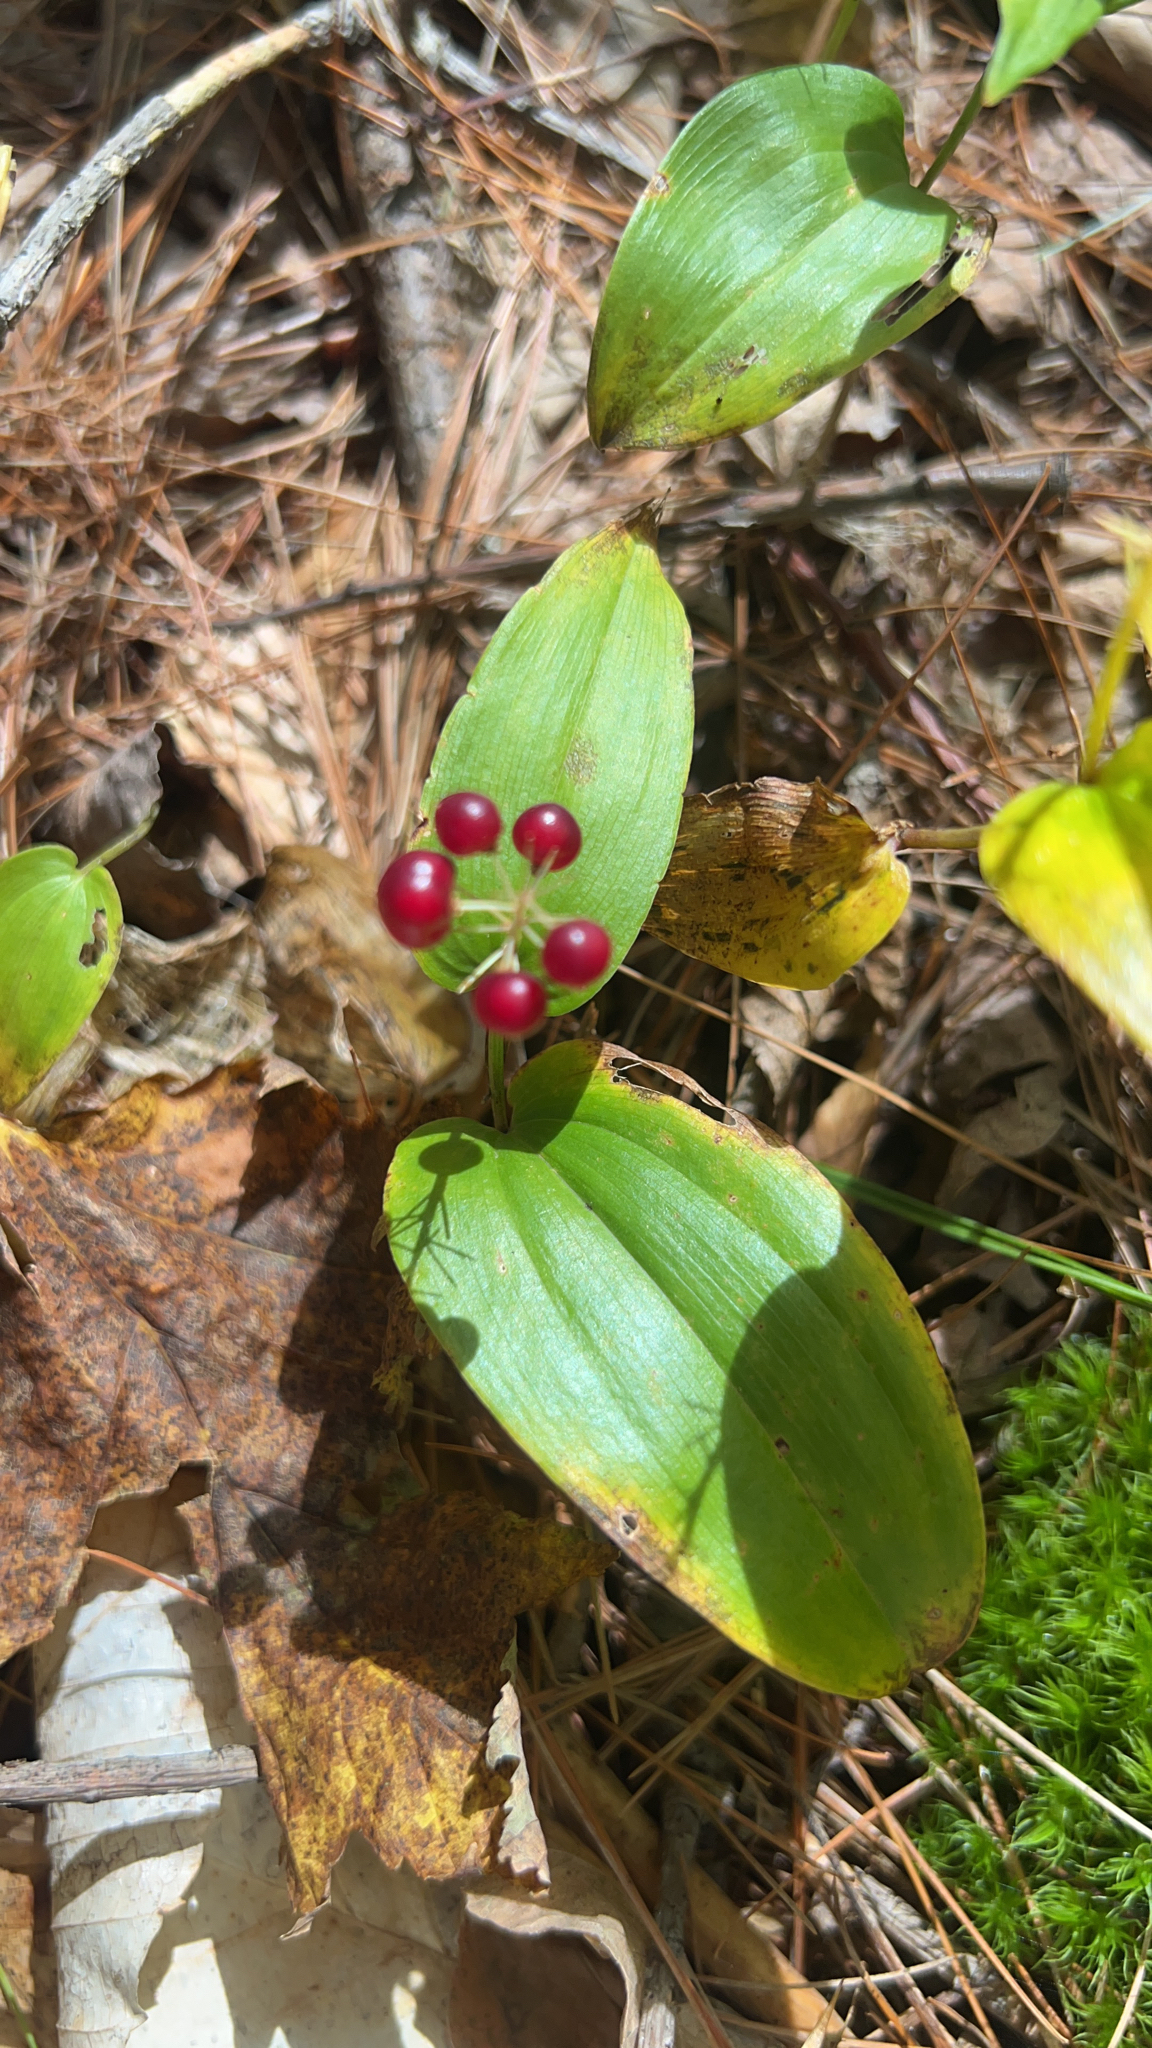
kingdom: Plantae
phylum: Tracheophyta
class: Liliopsida
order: Asparagales
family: Asparagaceae
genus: Maianthemum
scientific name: Maianthemum canadense
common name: False lily-of-the-valley
